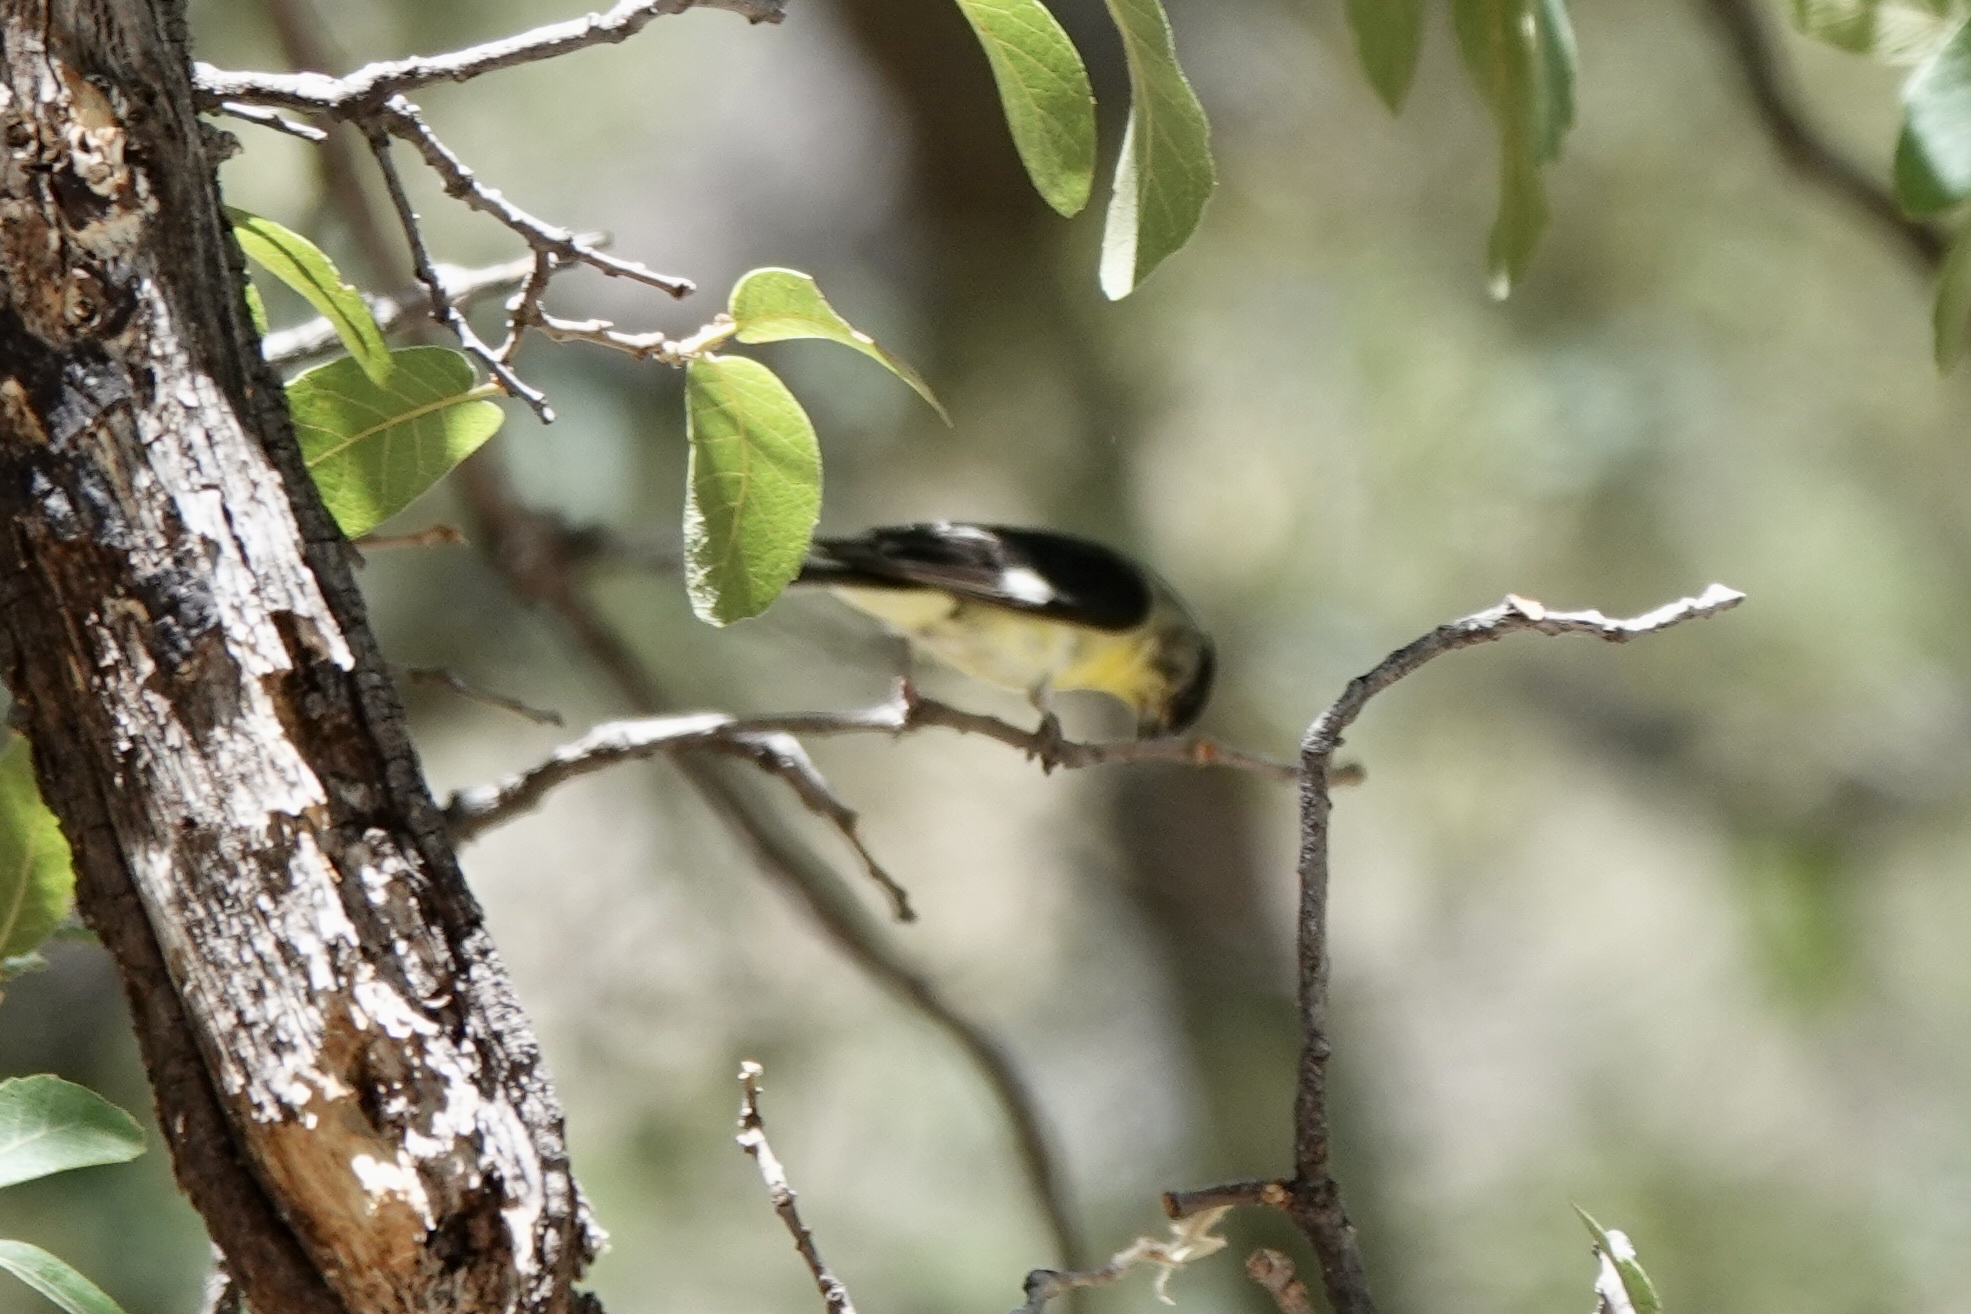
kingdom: Animalia
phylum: Chordata
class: Aves
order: Passeriformes
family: Fringillidae
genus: Spinus
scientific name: Spinus psaltria
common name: Lesser goldfinch
